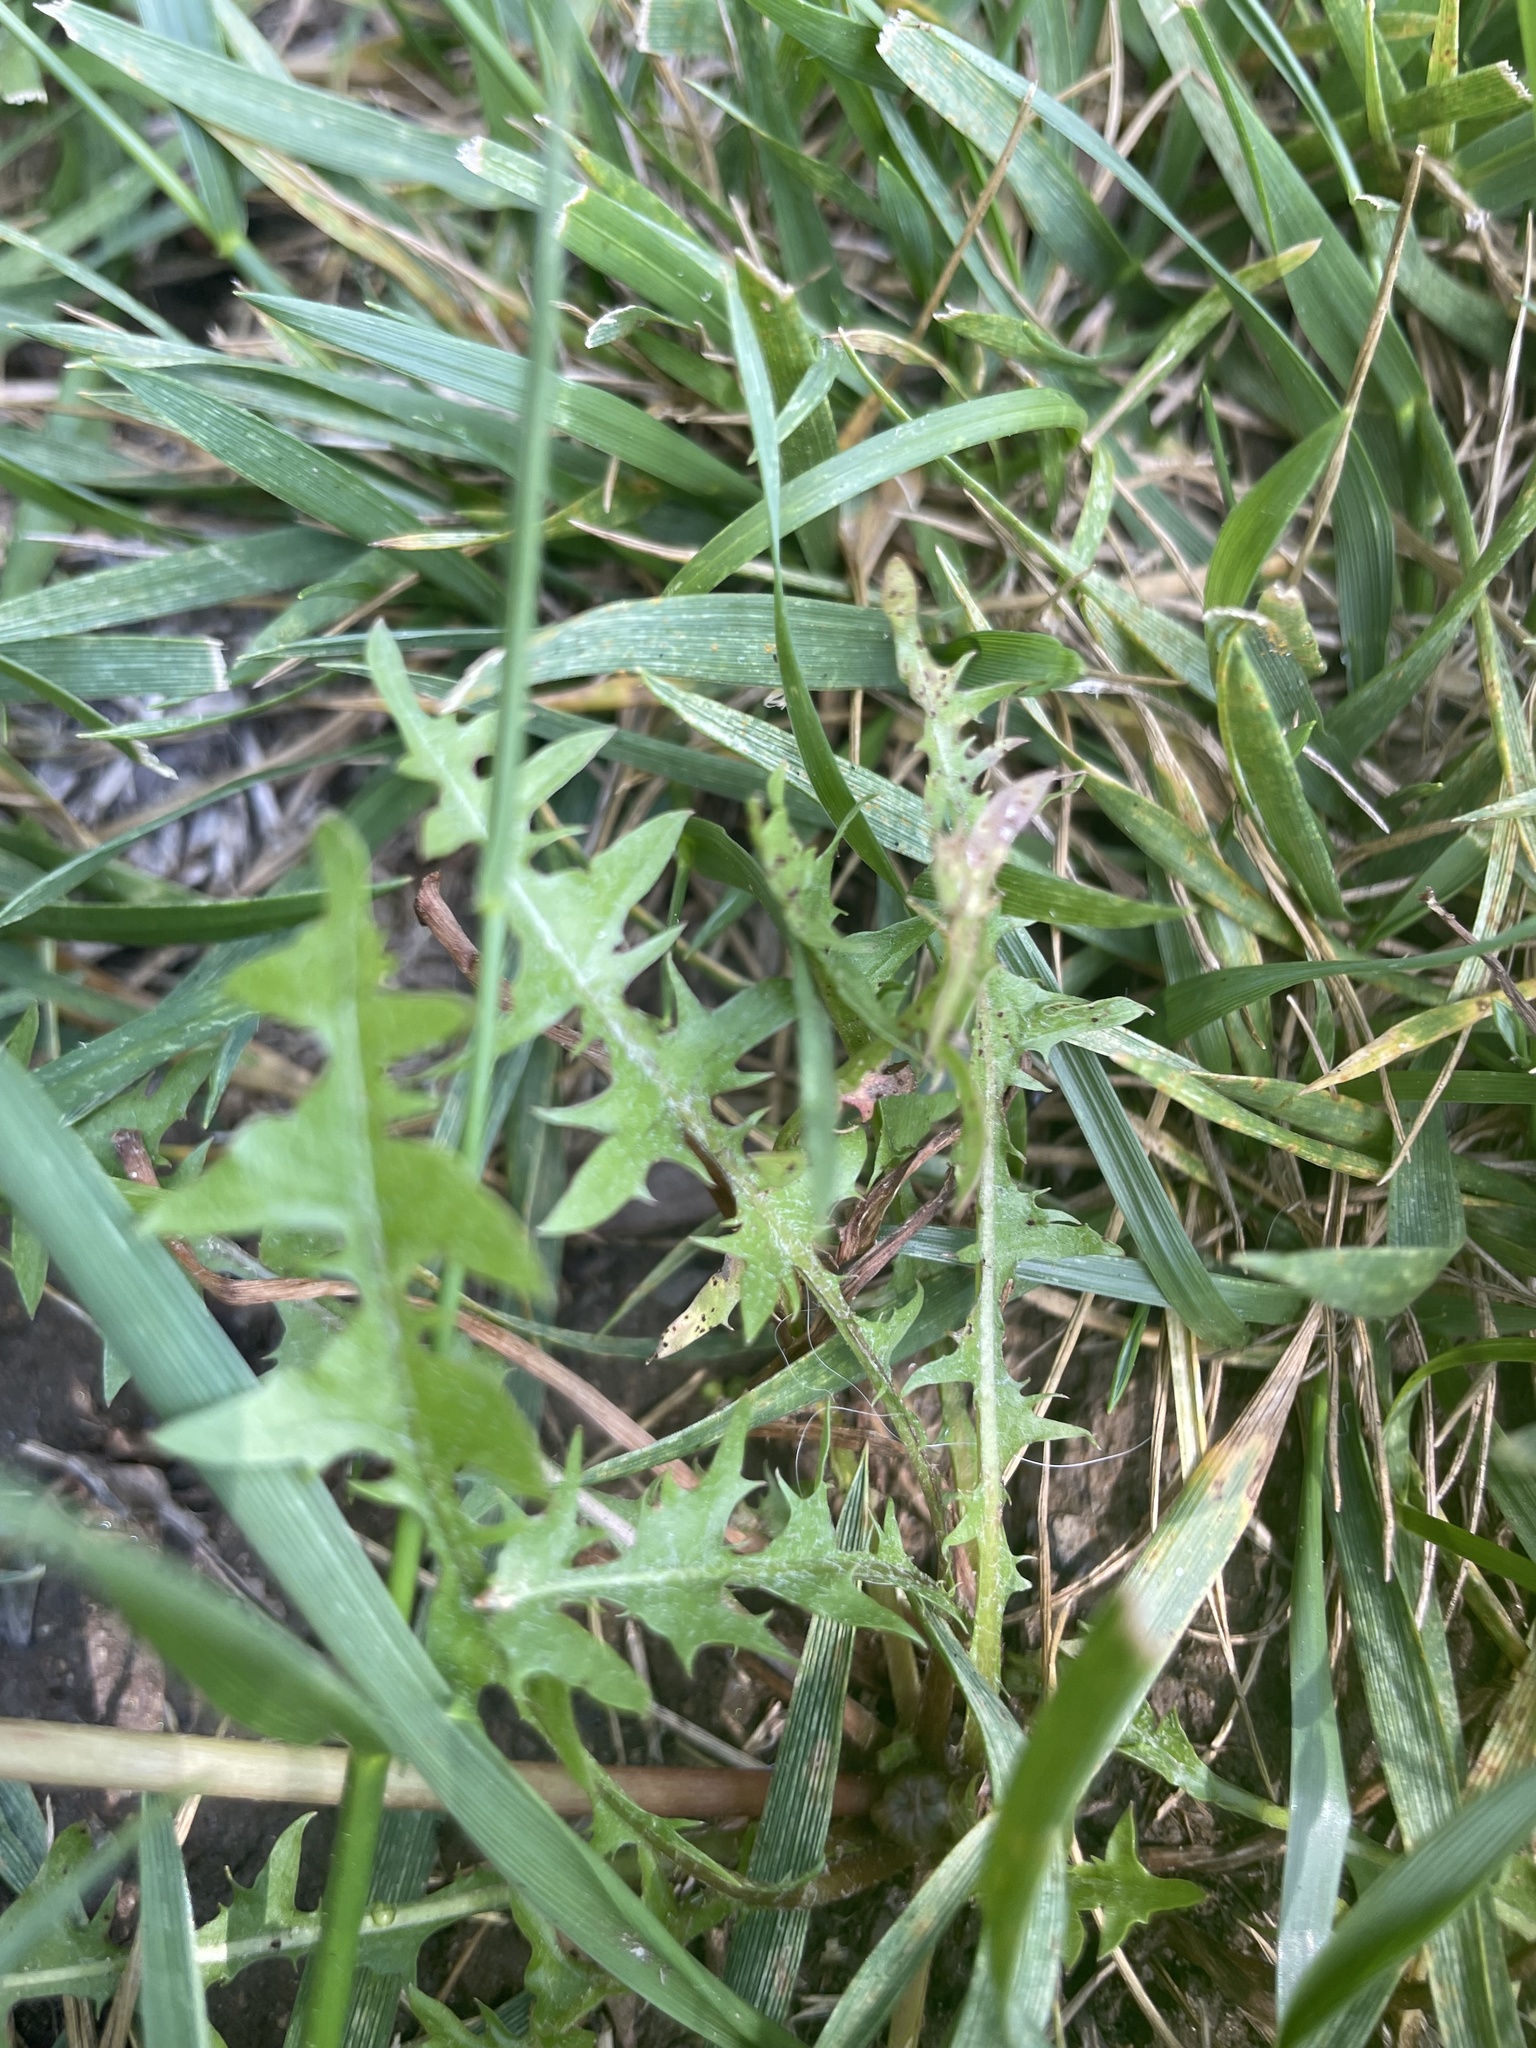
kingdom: Plantae
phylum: Tracheophyta
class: Magnoliopsida
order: Asterales
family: Asteraceae
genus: Taraxacum
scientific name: Taraxacum officinale
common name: Common dandelion
